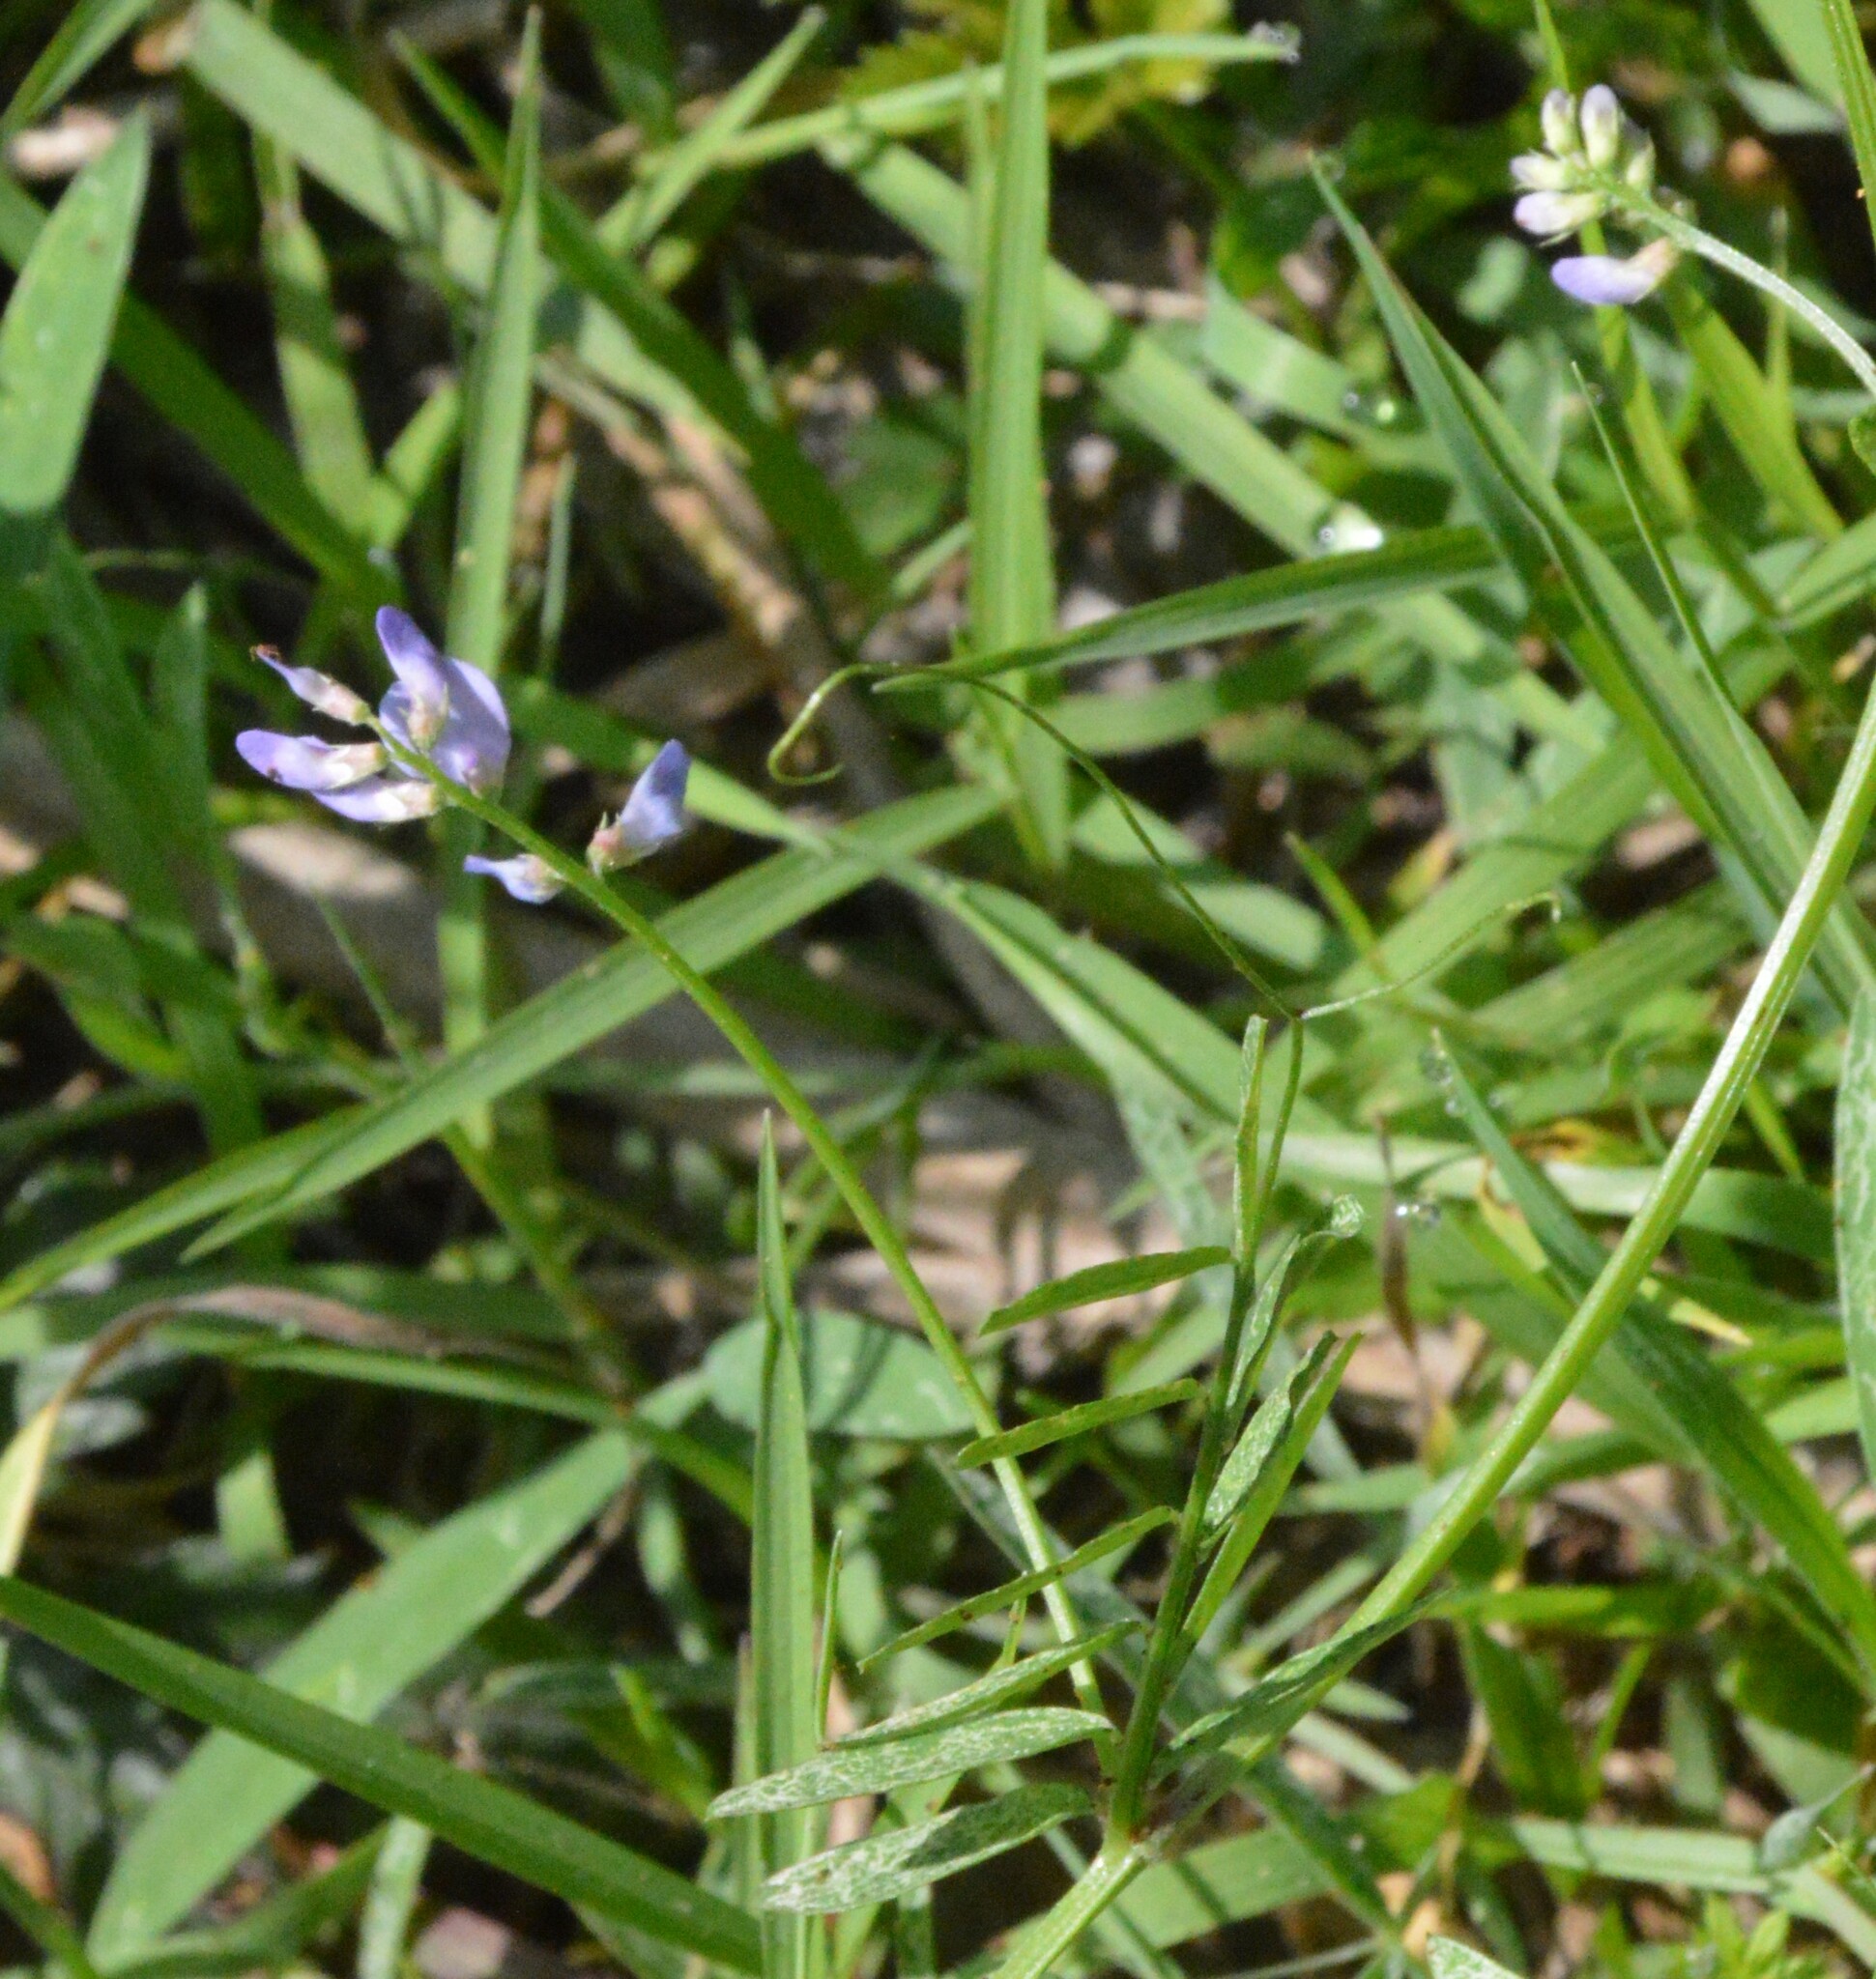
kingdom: Plantae
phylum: Tracheophyta
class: Magnoliopsida
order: Fabales
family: Fabaceae
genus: Vicia
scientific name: Vicia ludoviciana
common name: Louisiana vetch
